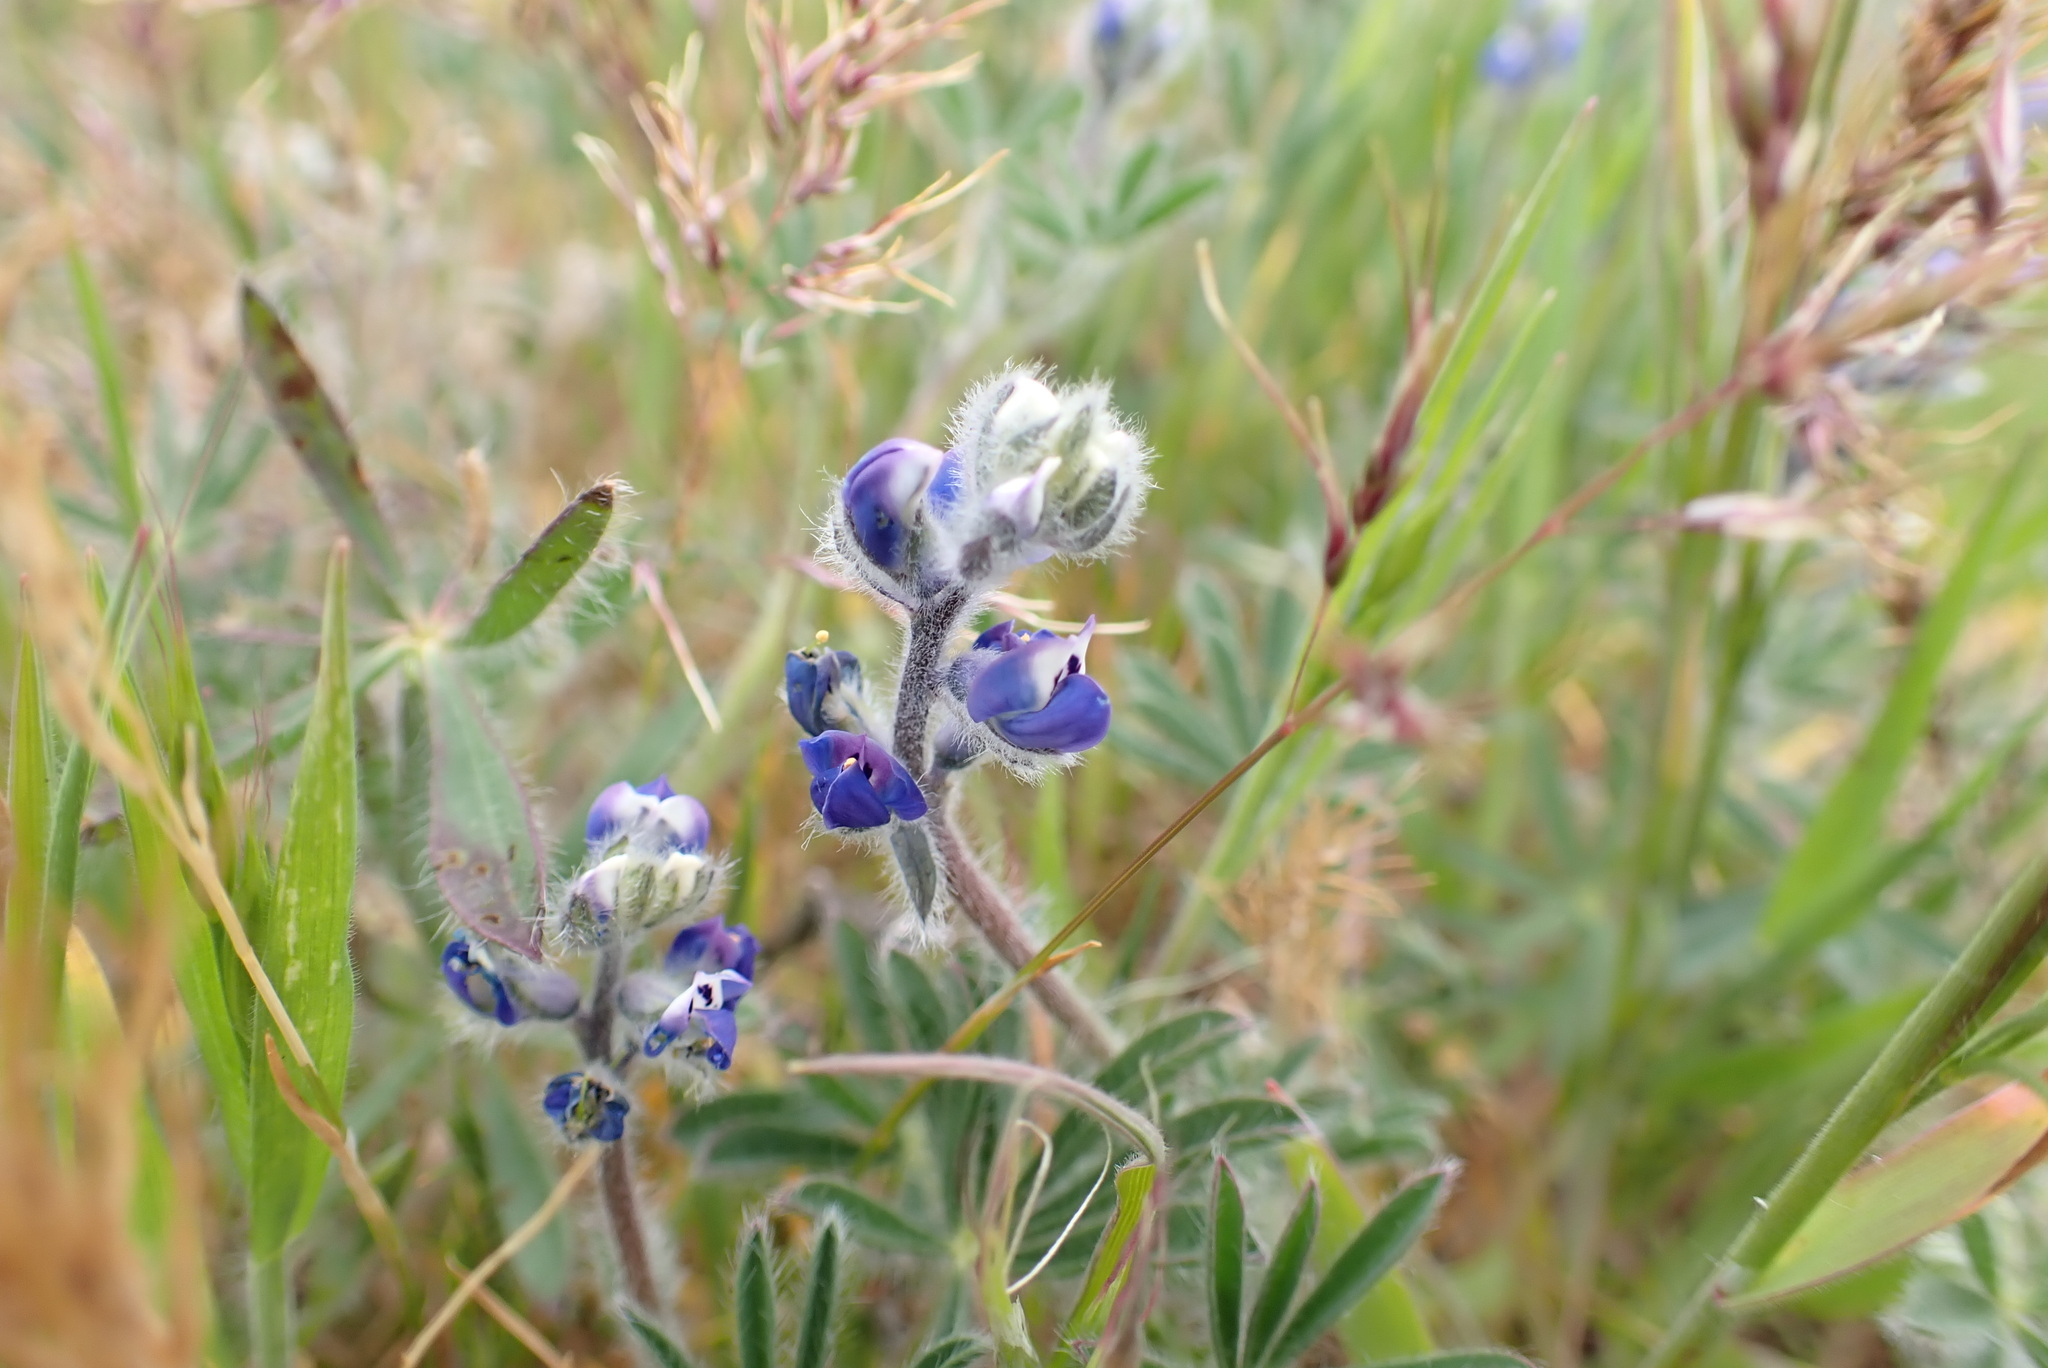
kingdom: Plantae
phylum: Tracheophyta
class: Magnoliopsida
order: Fabales
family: Fabaceae
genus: Lupinus
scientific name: Lupinus bicolor
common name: Miniature lupine
